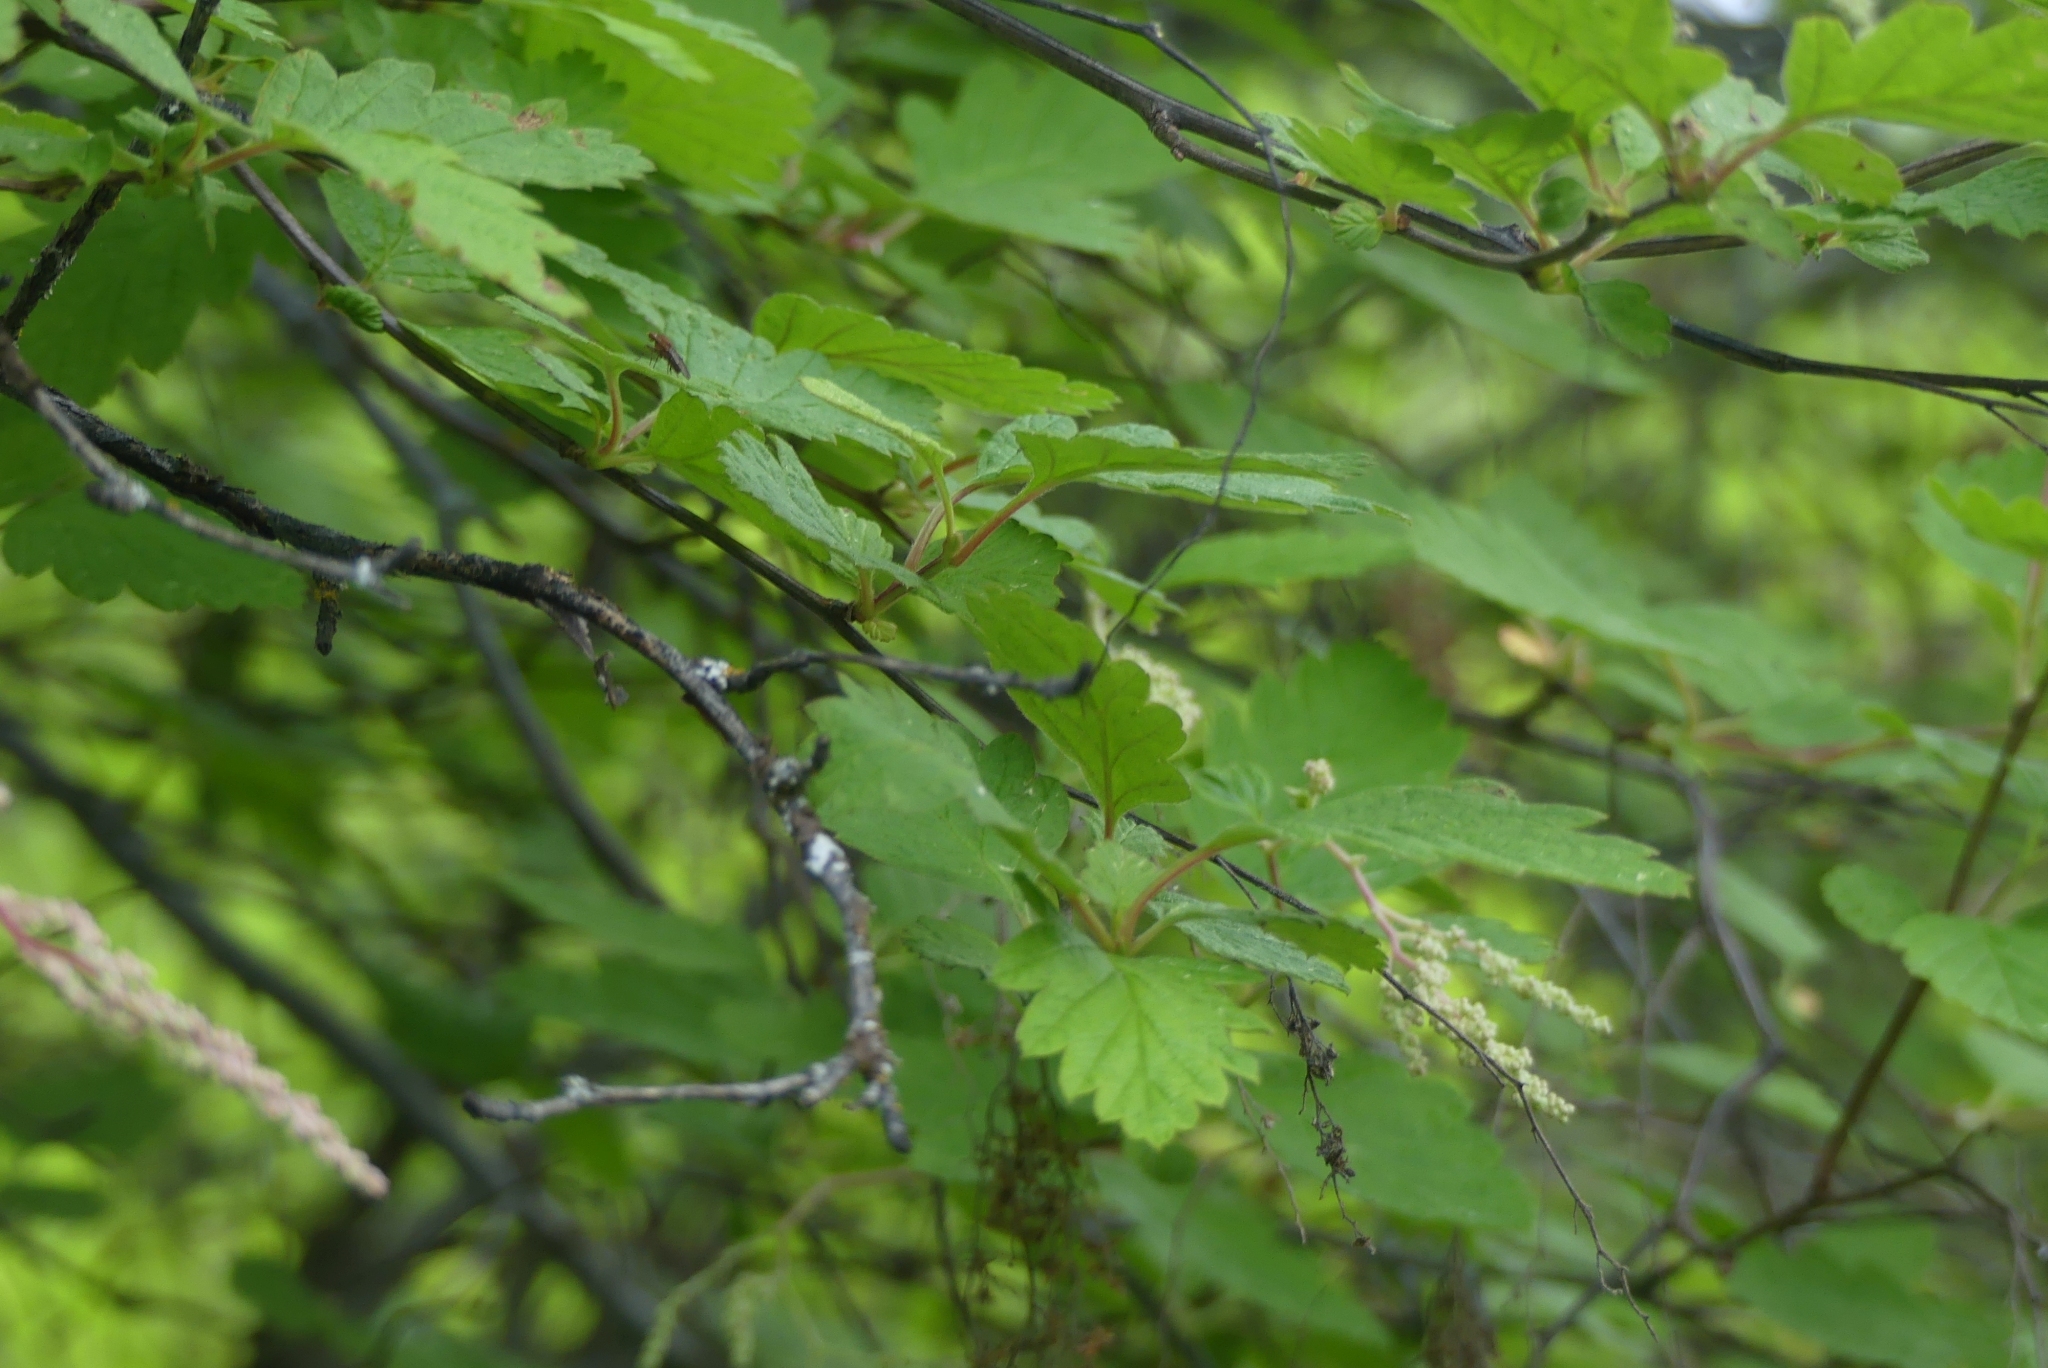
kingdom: Plantae
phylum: Tracheophyta
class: Magnoliopsida
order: Rosales
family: Rosaceae
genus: Holodiscus
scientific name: Holodiscus discolor
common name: Oceanspray
